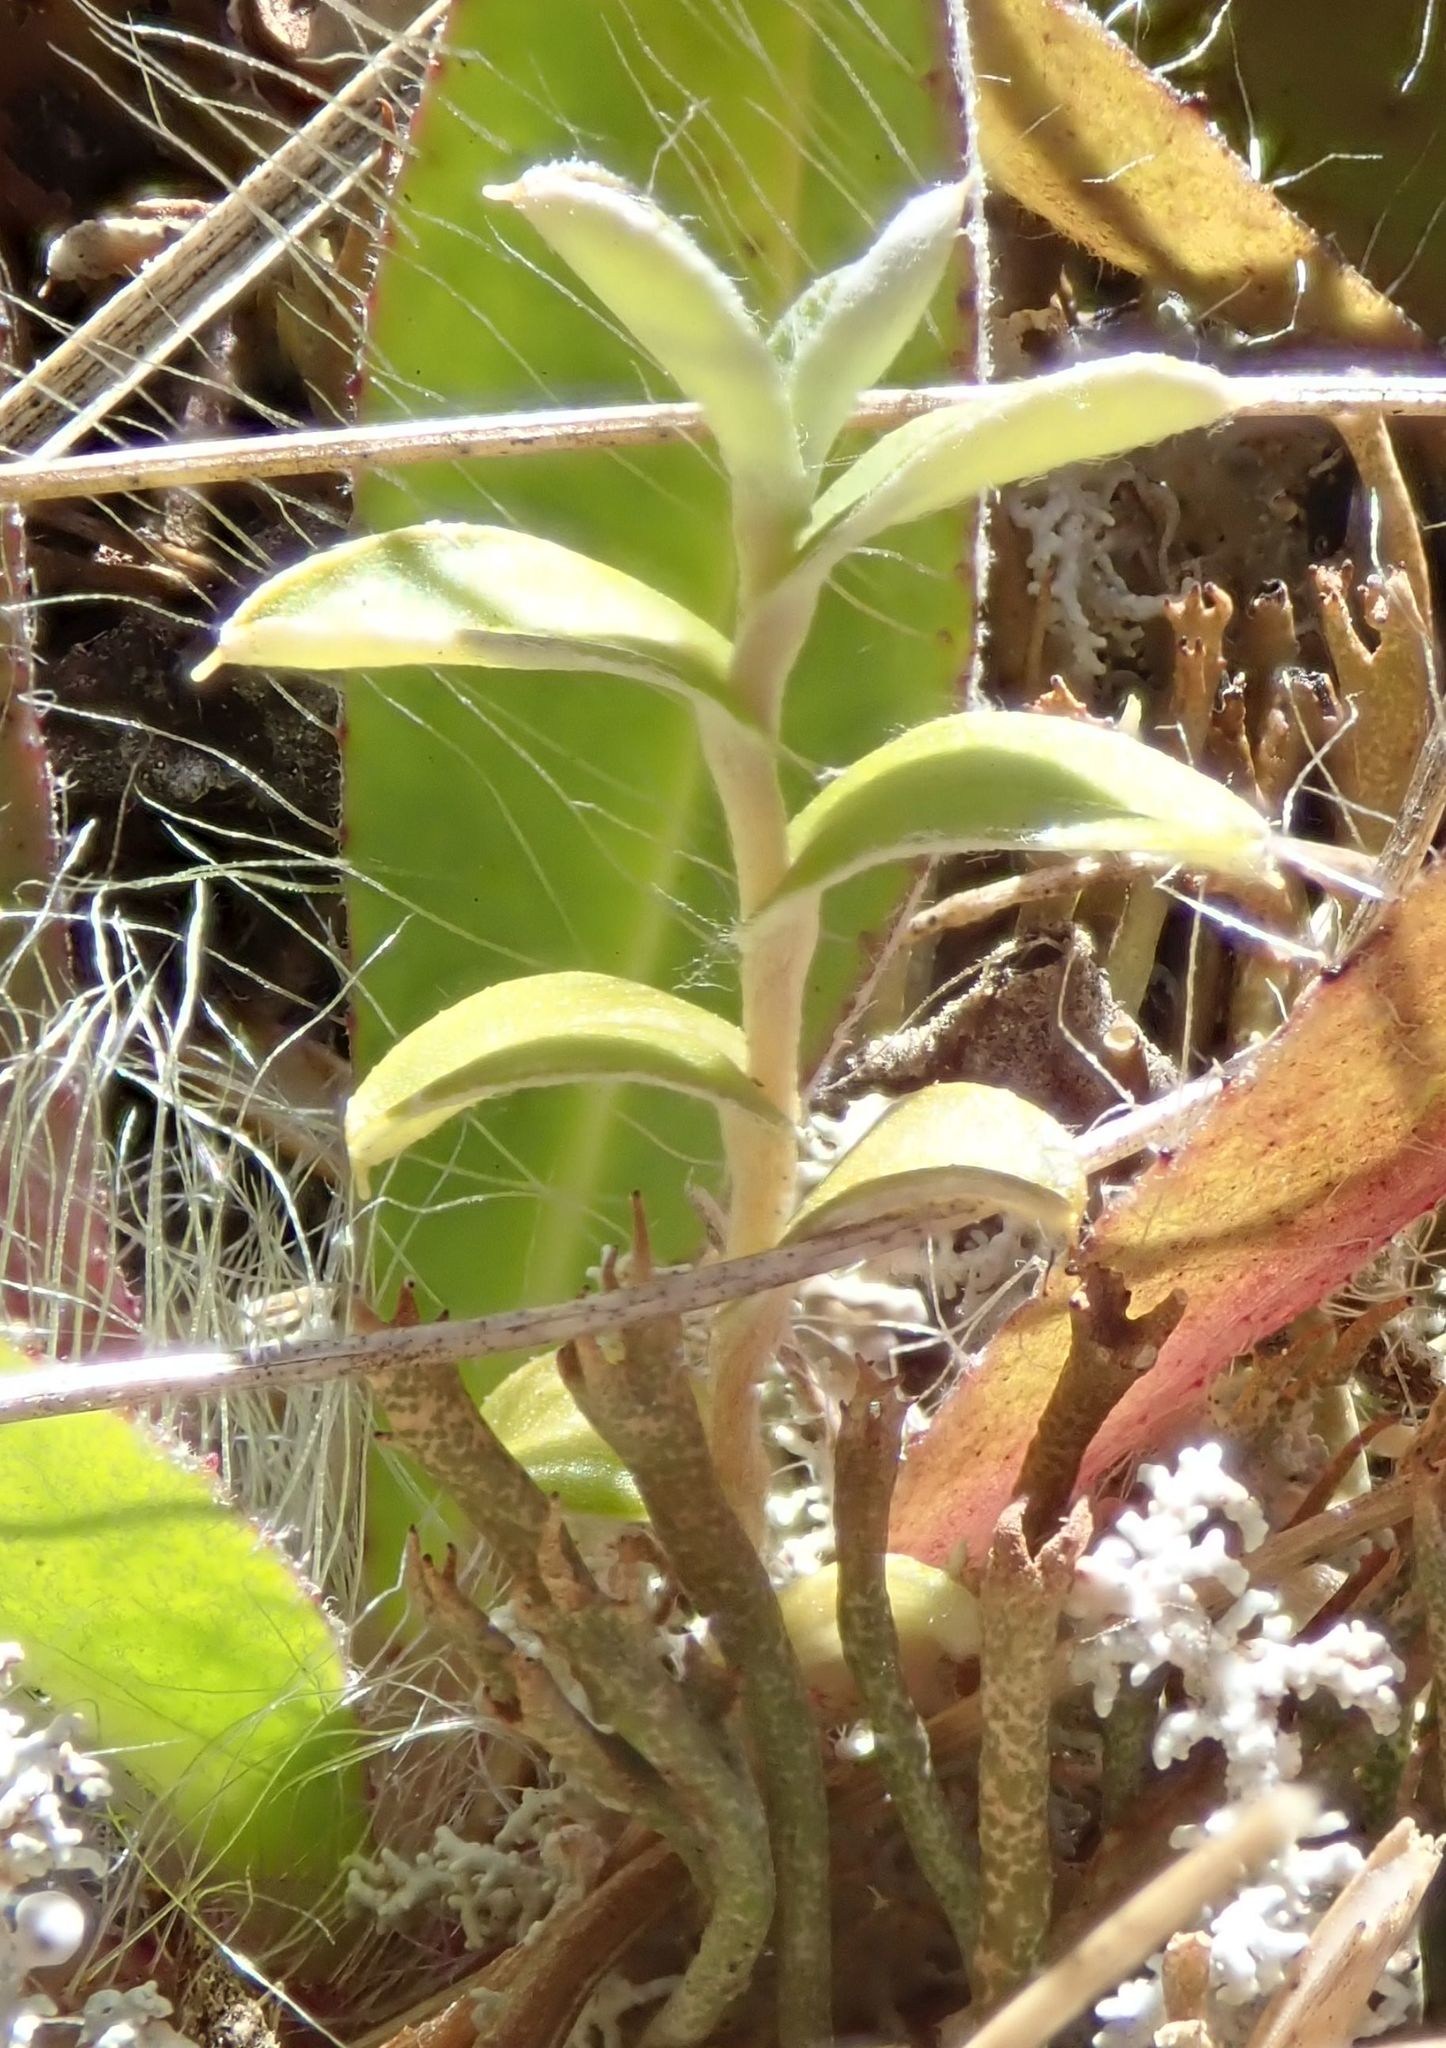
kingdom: Plantae
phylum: Tracheophyta
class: Magnoliopsida
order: Asterales
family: Asteraceae
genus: Helichrysum
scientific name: Helichrysum filicaule
